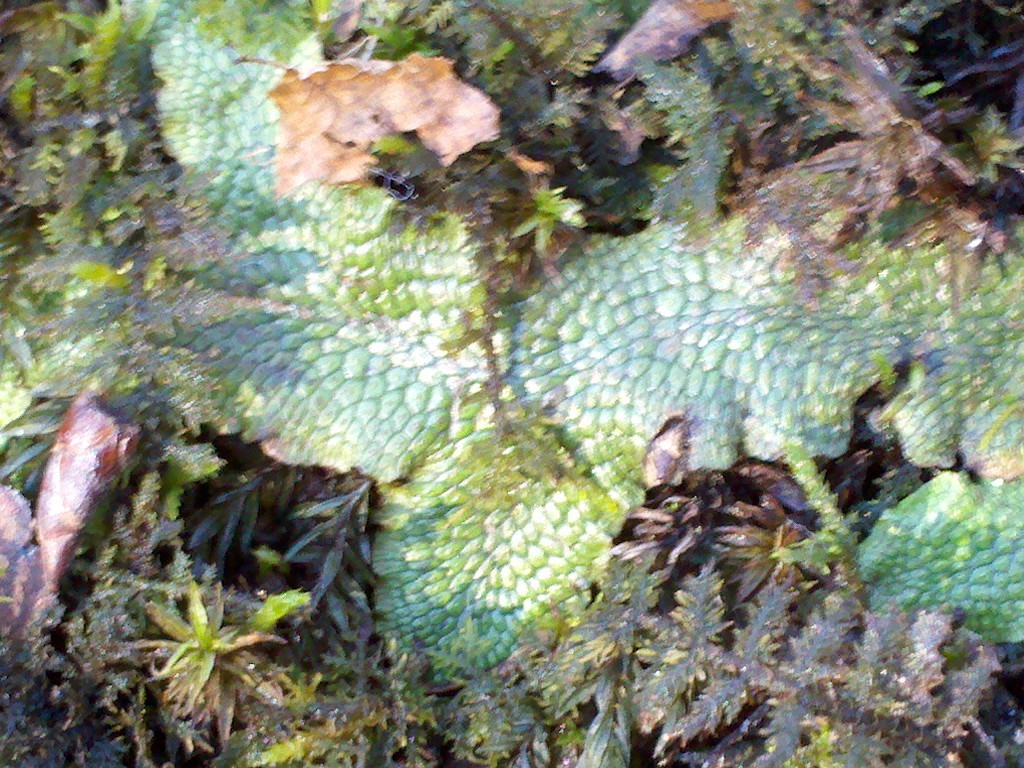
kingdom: Plantae
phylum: Marchantiophyta
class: Marchantiopsida
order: Marchantiales
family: Conocephalaceae
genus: Conocephalum
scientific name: Conocephalum salebrosum
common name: Cat-tongue liverwort
